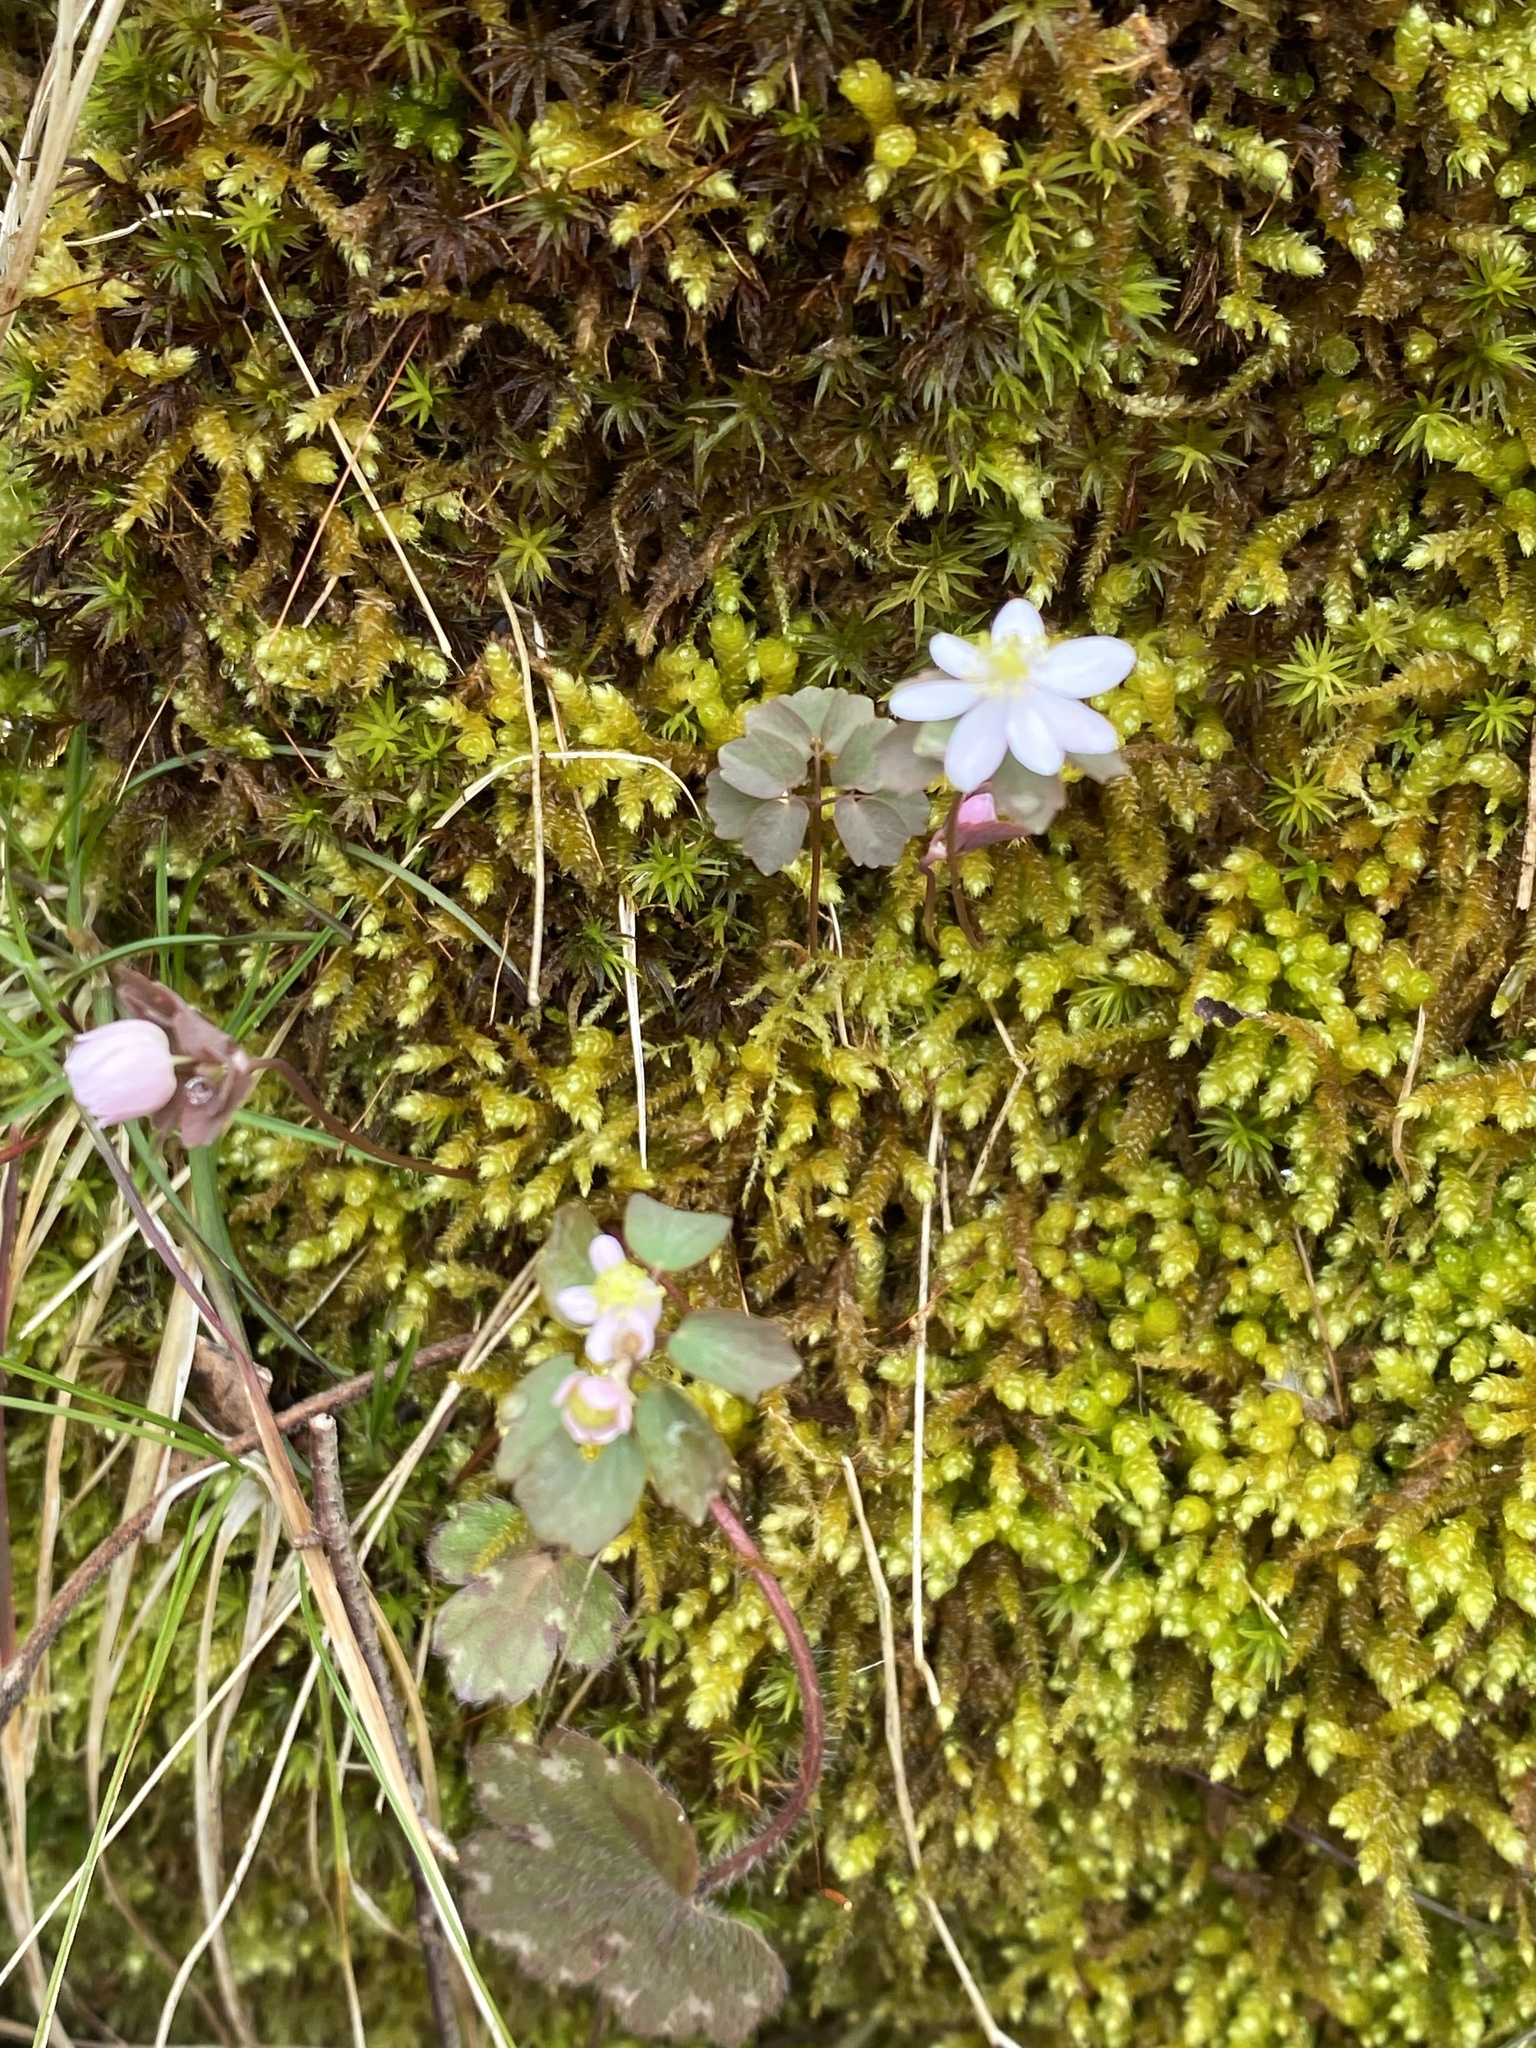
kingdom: Plantae
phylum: Tracheophyta
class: Magnoliopsida
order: Ranunculales
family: Ranunculaceae
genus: Thalictrum
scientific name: Thalictrum thalictroides
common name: Rue-anemone
